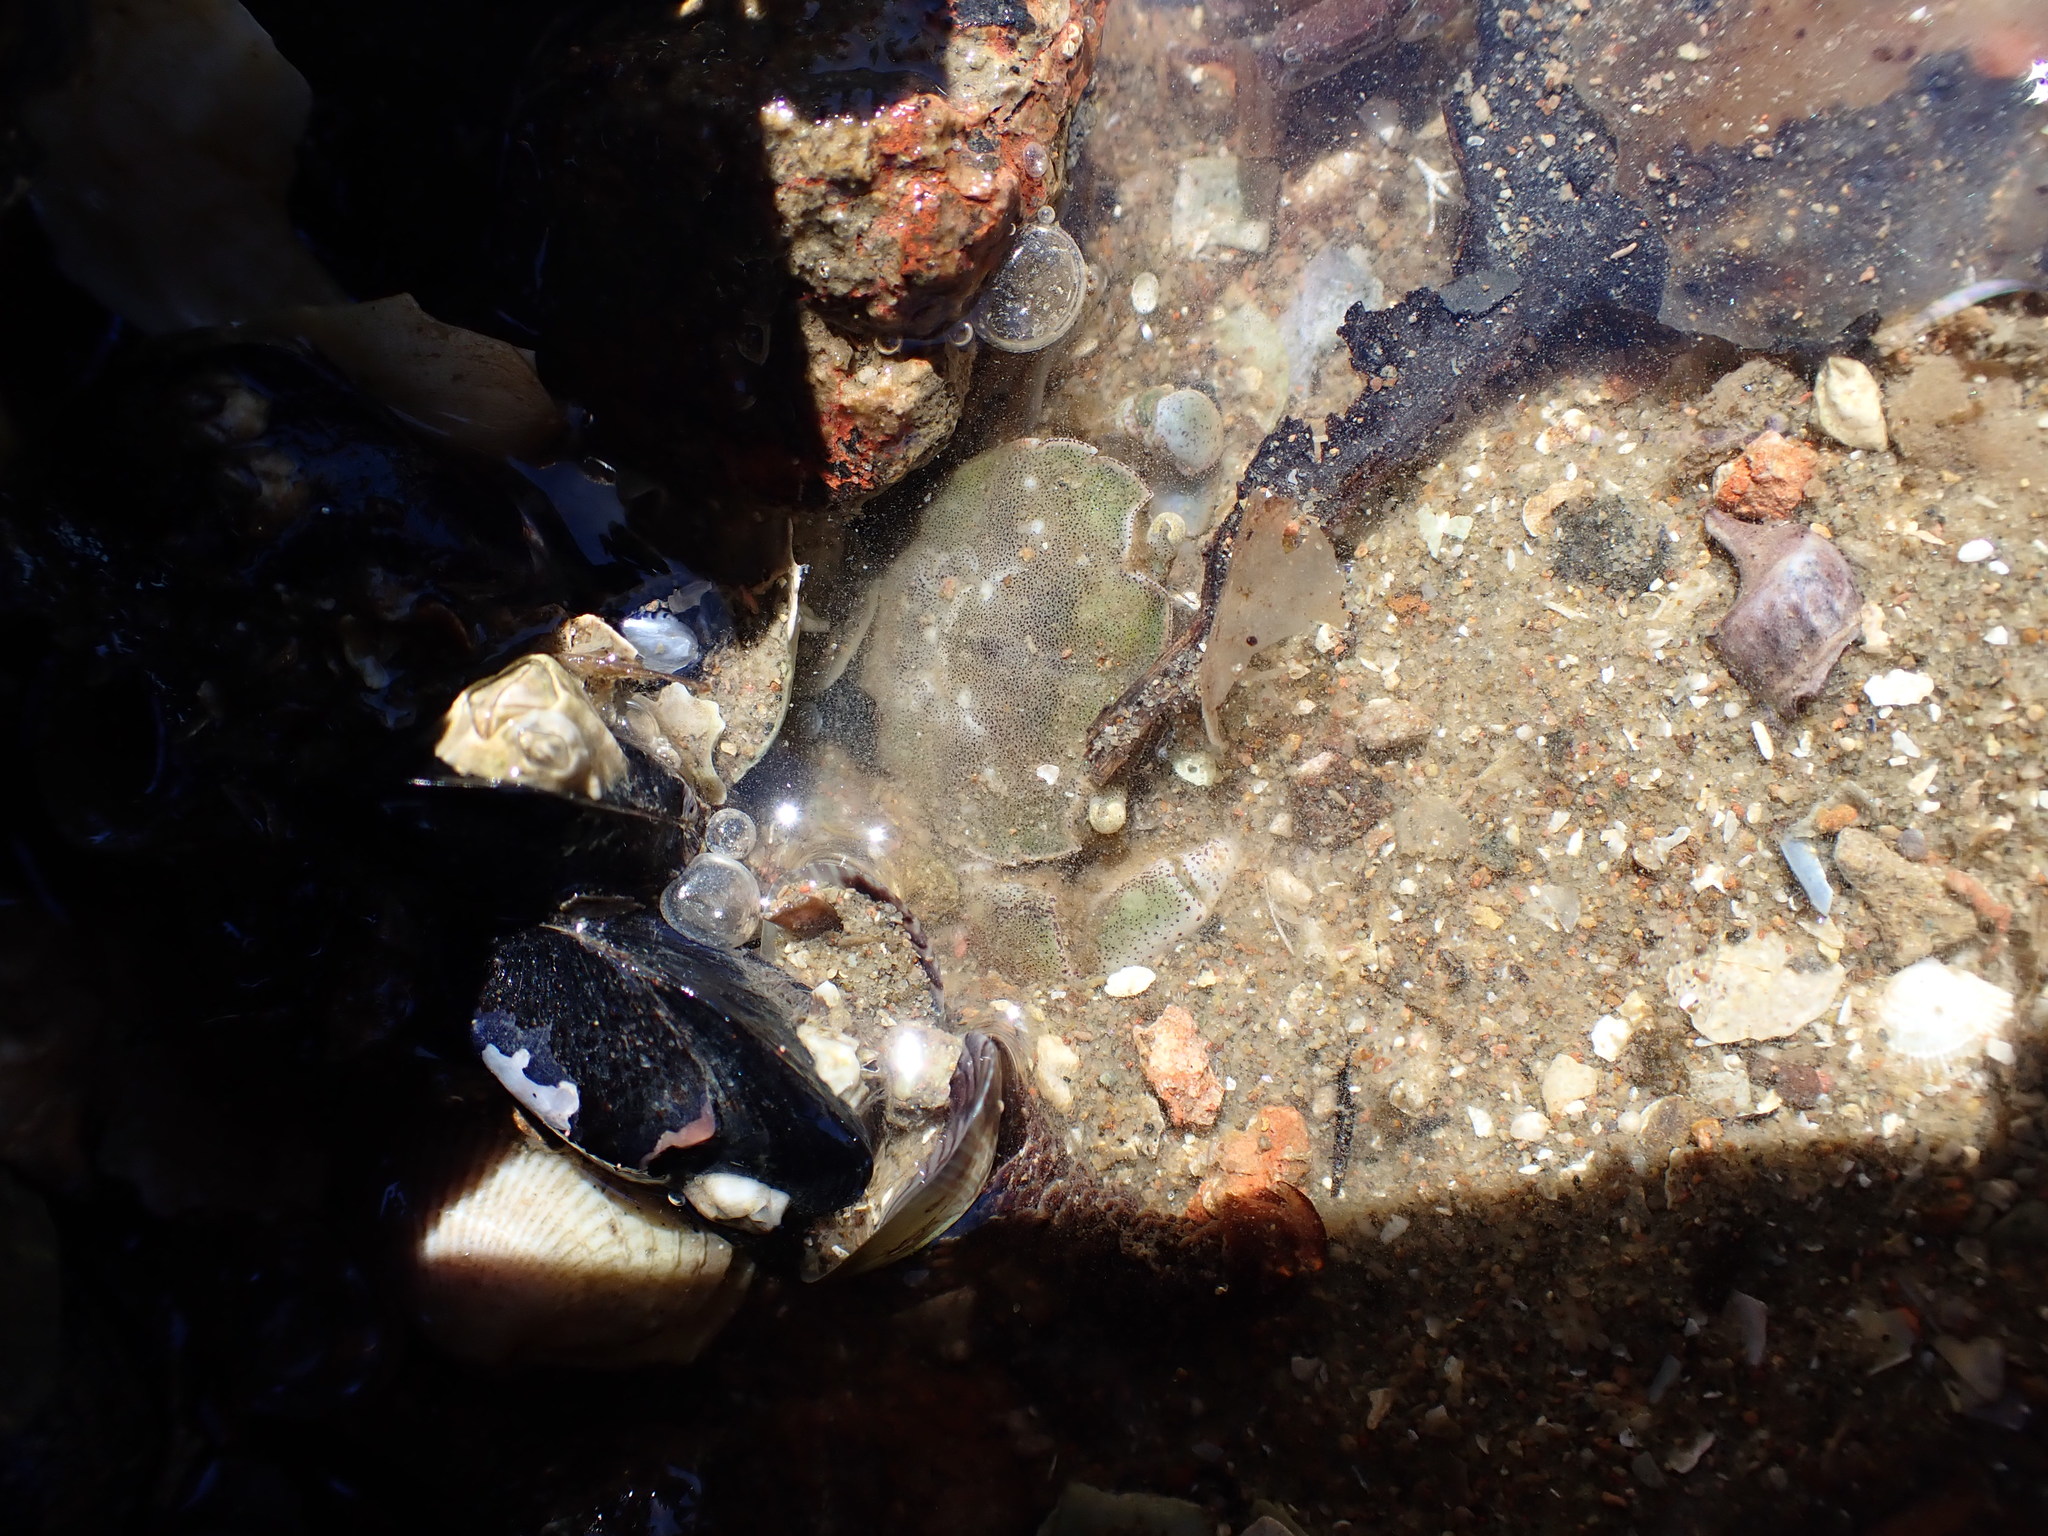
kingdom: Animalia
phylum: Arthropoda
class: Malacostraca
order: Decapoda
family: Varunidae
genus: Hemigrapsus
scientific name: Hemigrapsus crenulatus
